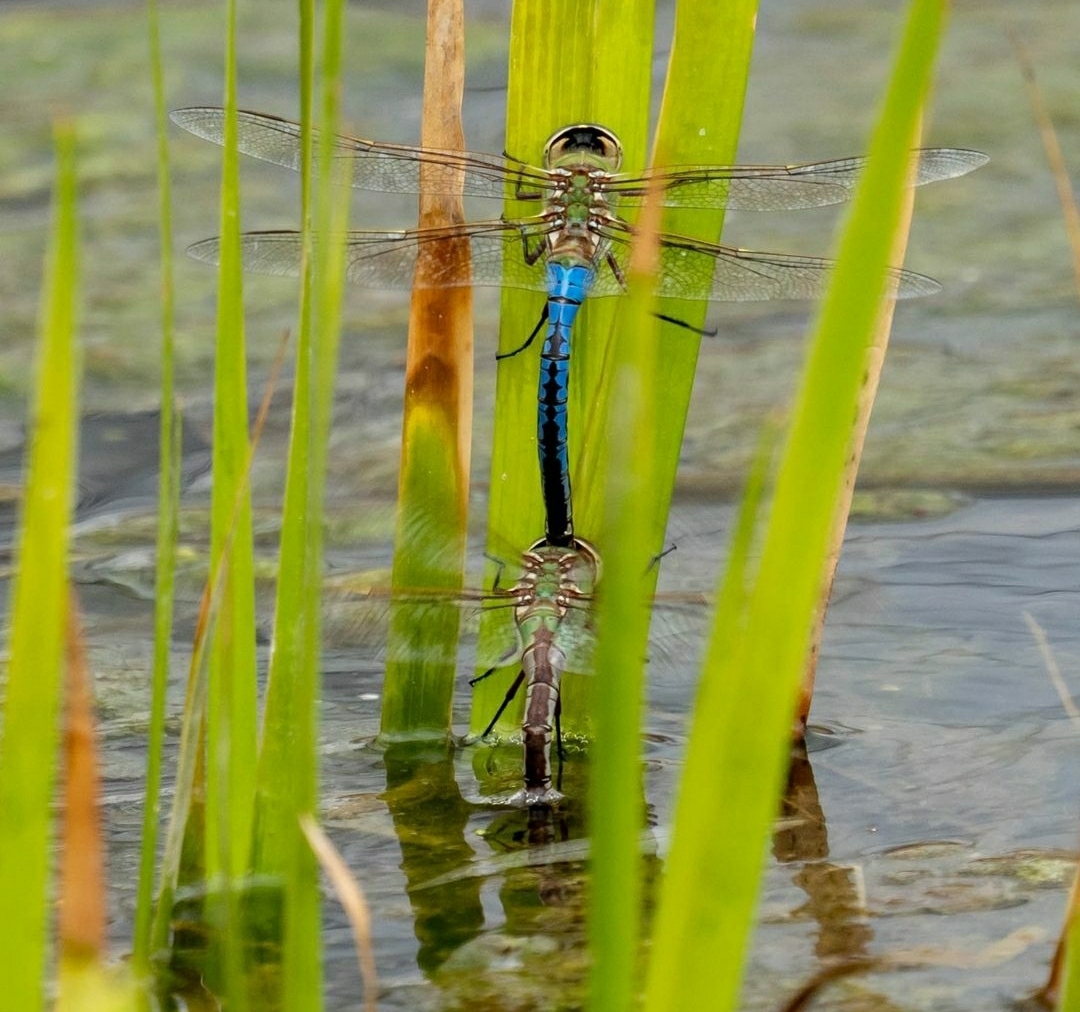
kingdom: Animalia
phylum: Arthropoda
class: Insecta
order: Odonata
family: Aeshnidae
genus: Anax
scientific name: Anax junius
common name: Common green darner
